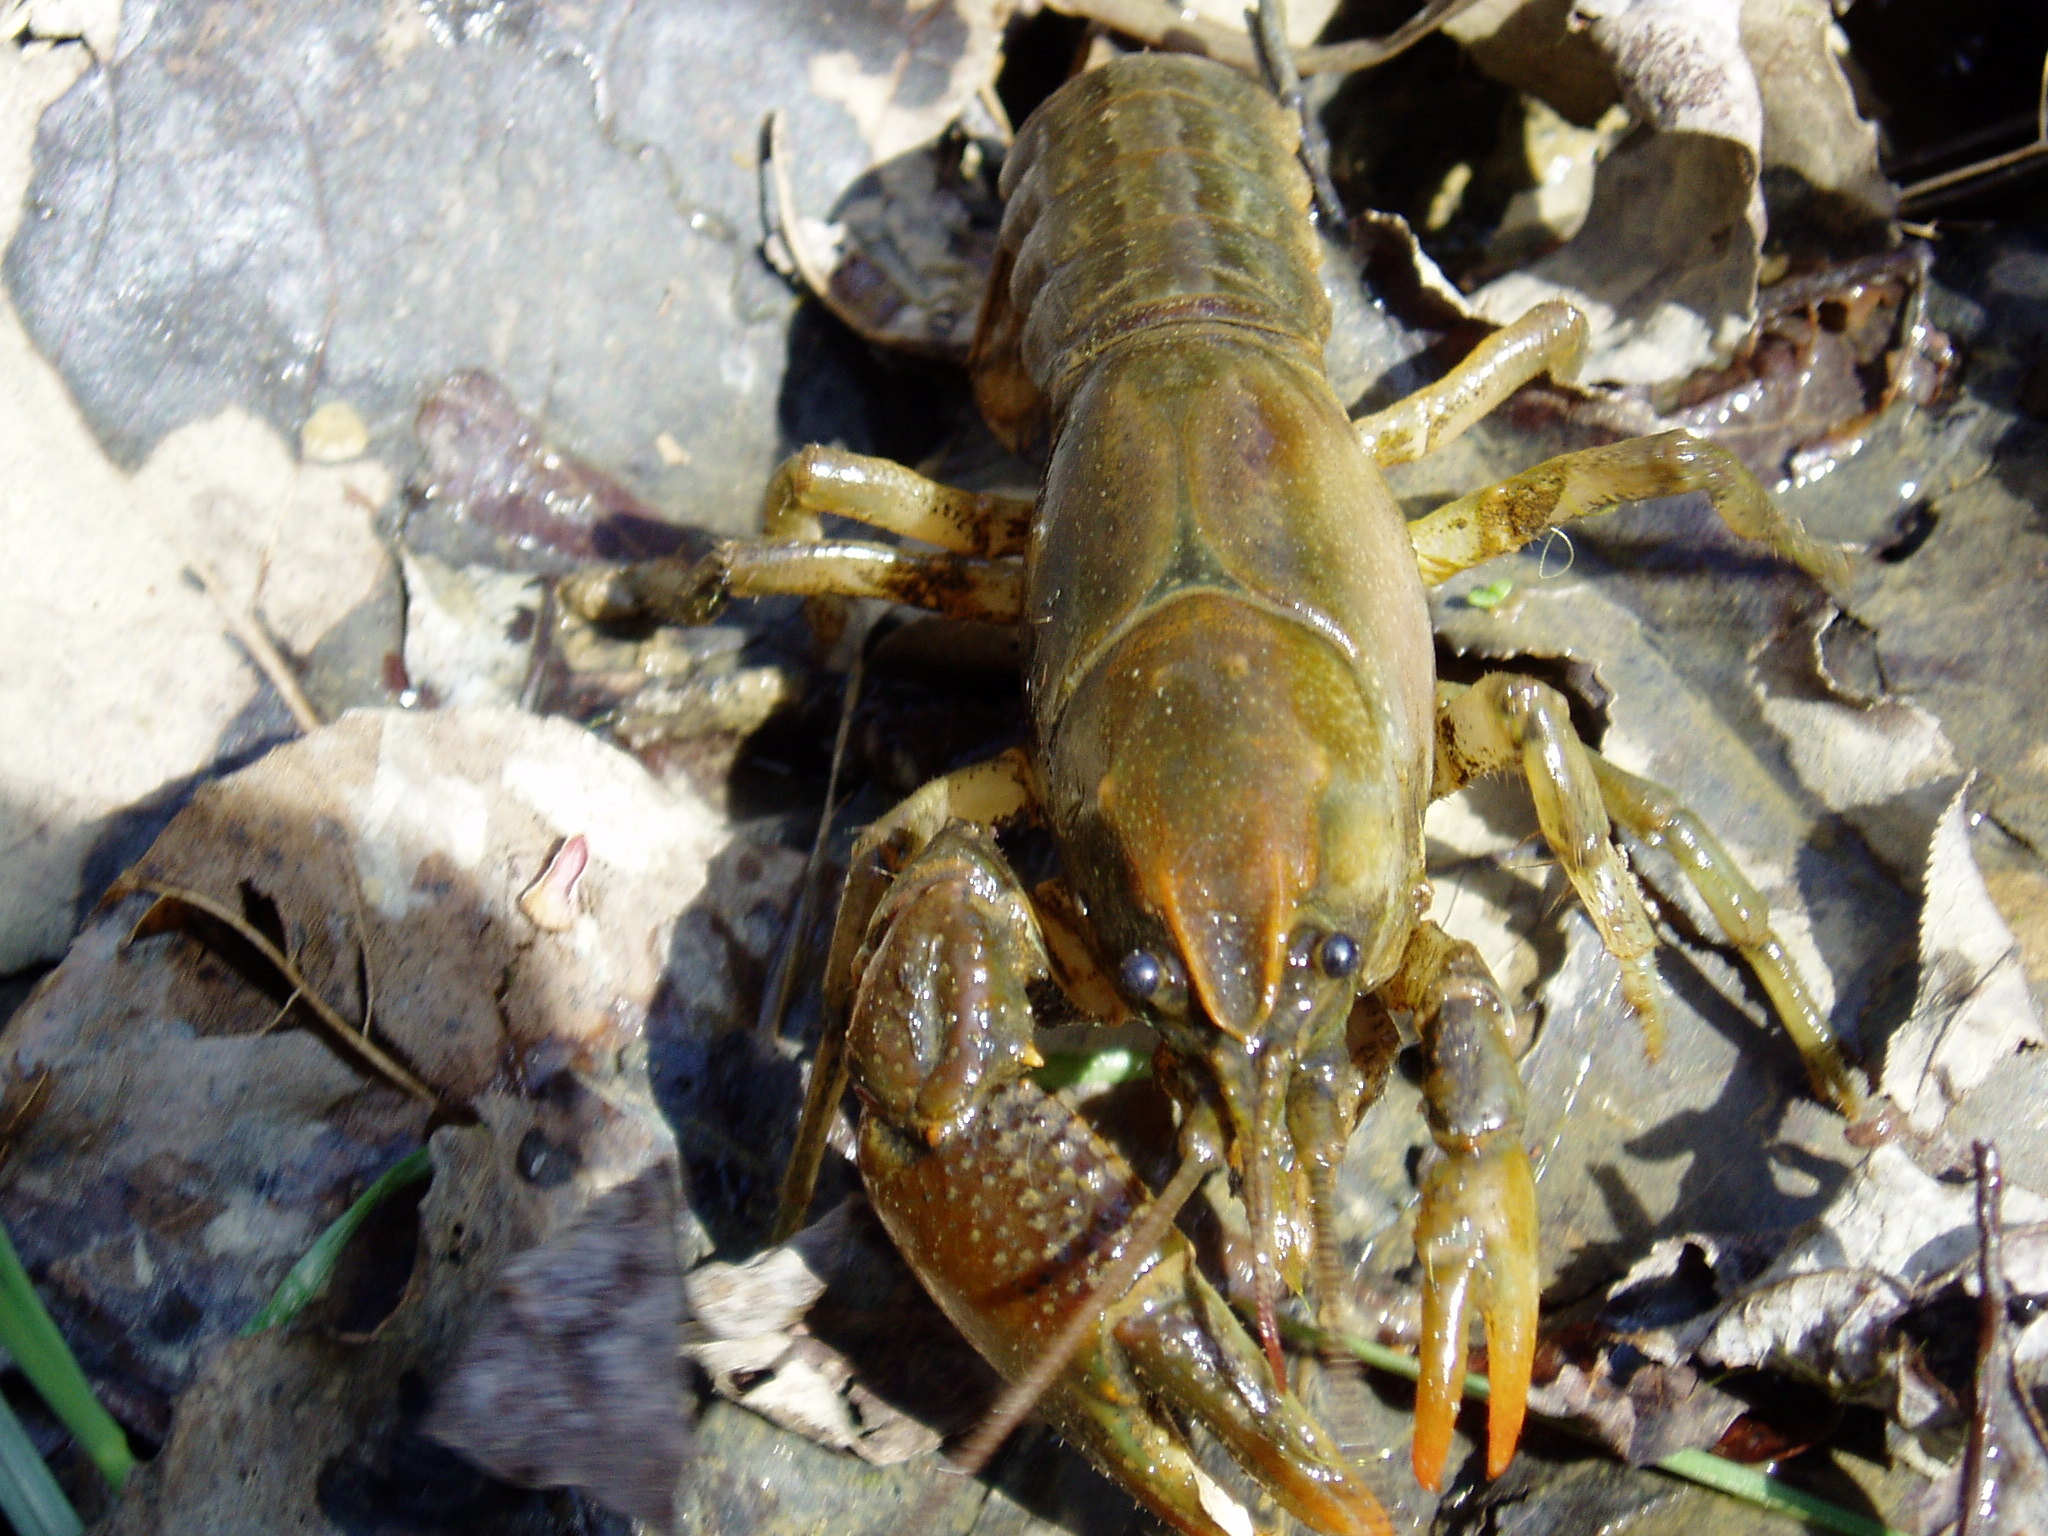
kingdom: Animalia
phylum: Arthropoda
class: Malacostraca
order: Decapoda
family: Cambaridae
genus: Lacunicambarus
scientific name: Lacunicambarus thomai
